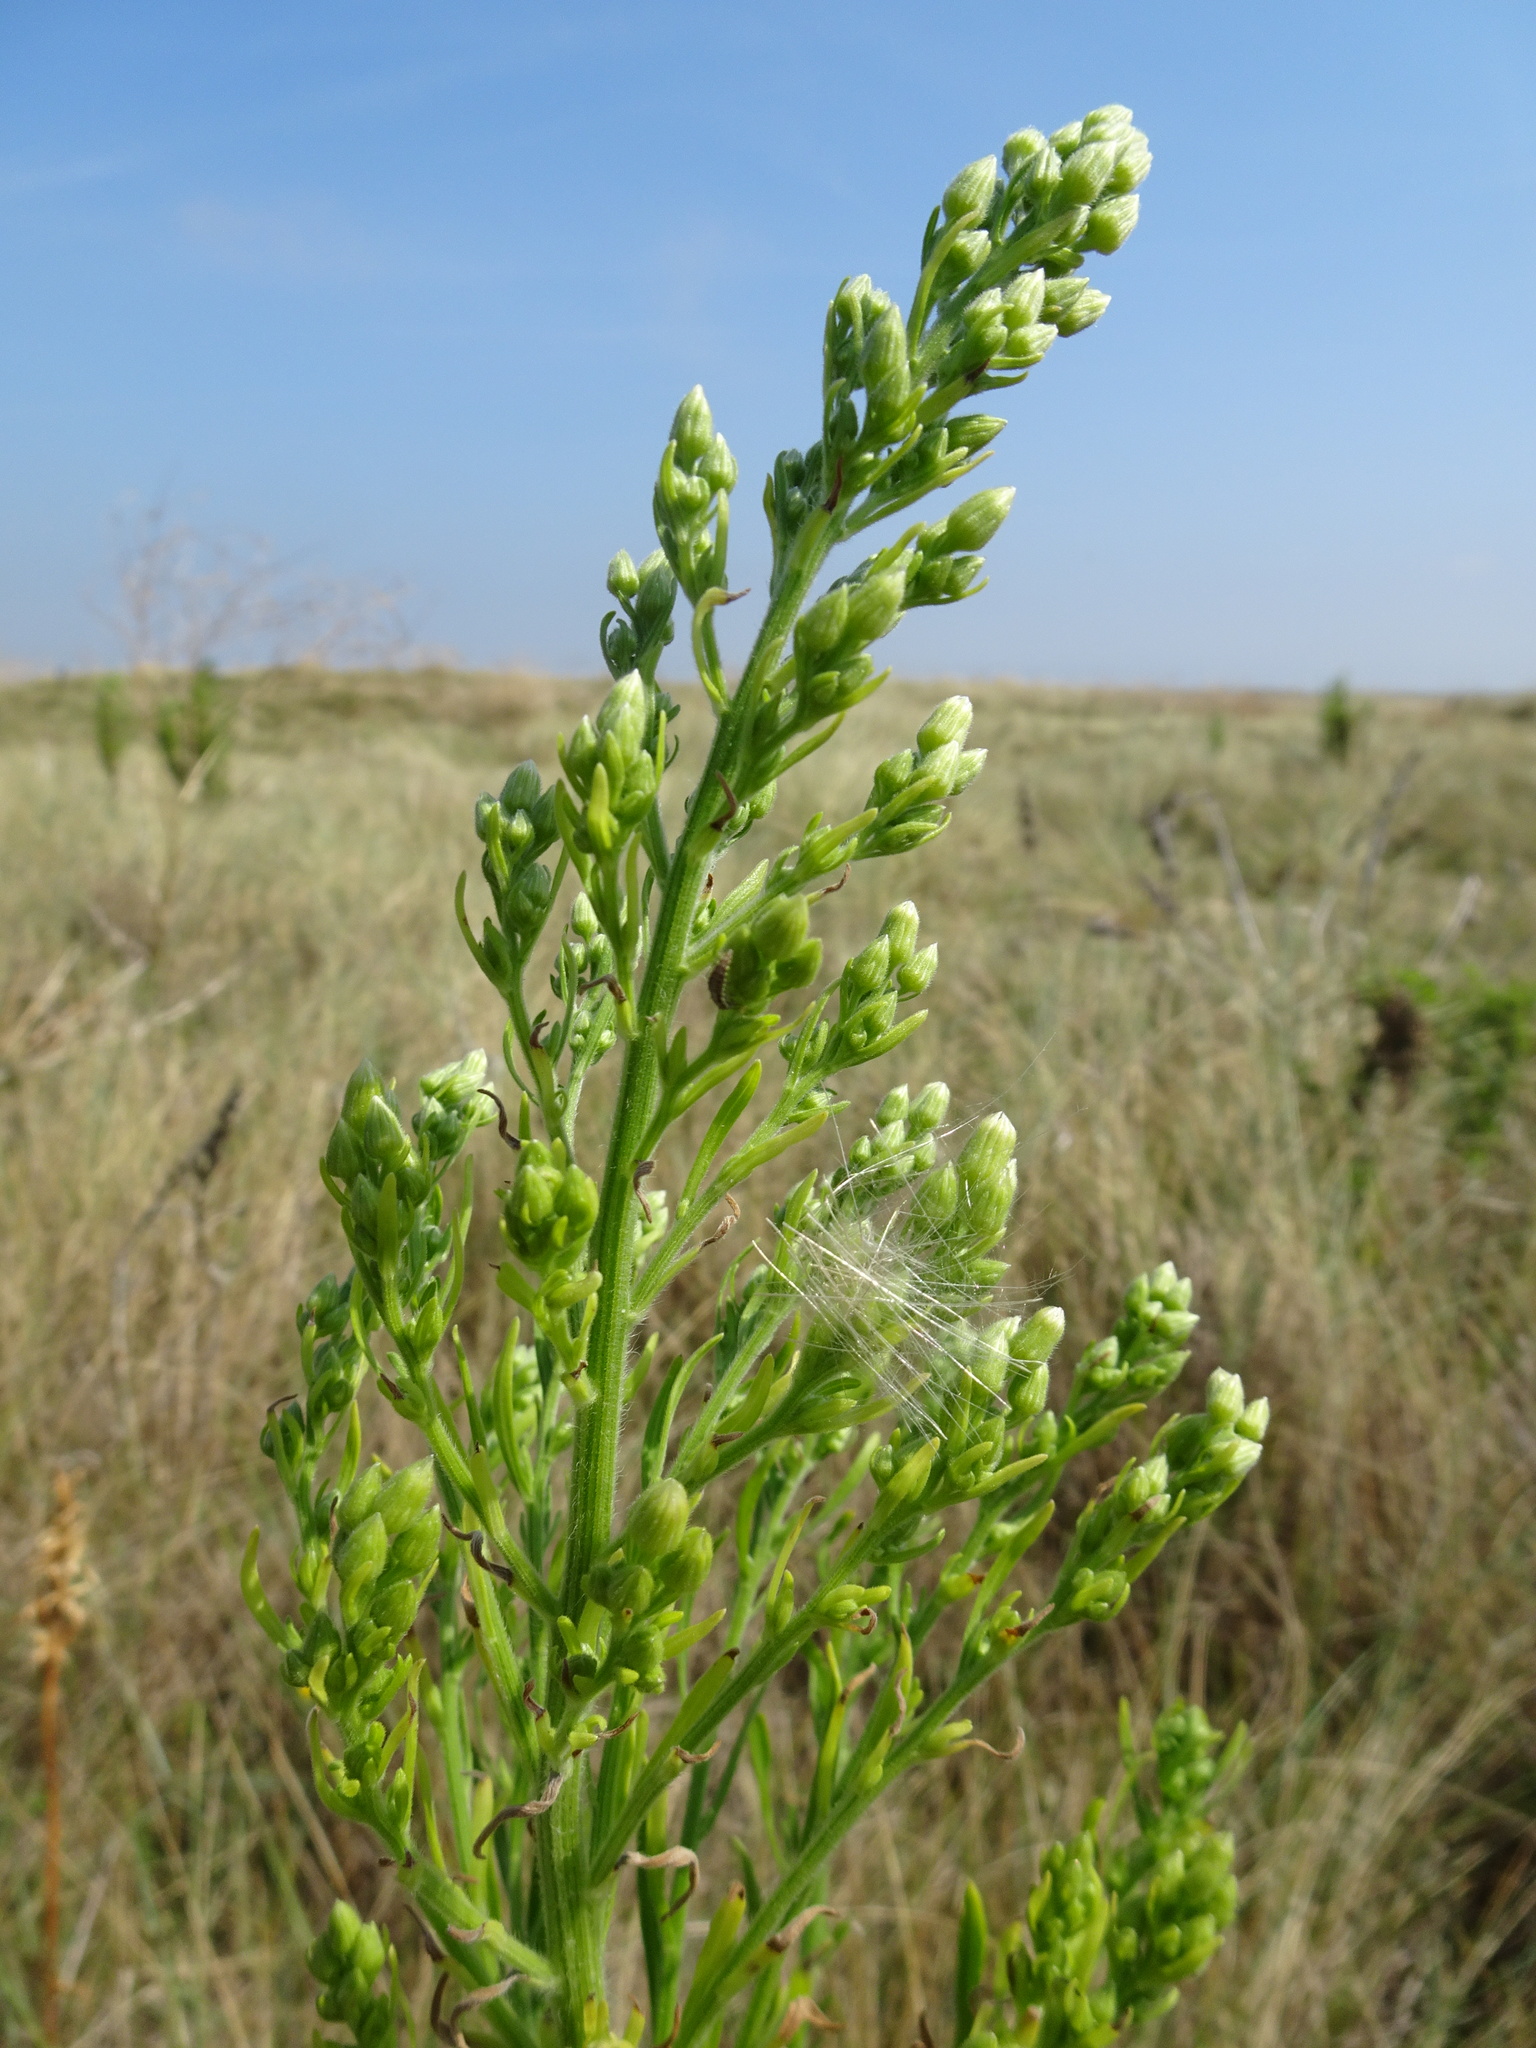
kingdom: Plantae
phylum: Tracheophyta
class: Magnoliopsida
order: Asterales
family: Asteraceae
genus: Erigeron
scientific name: Erigeron sumatrensis
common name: Daisy
